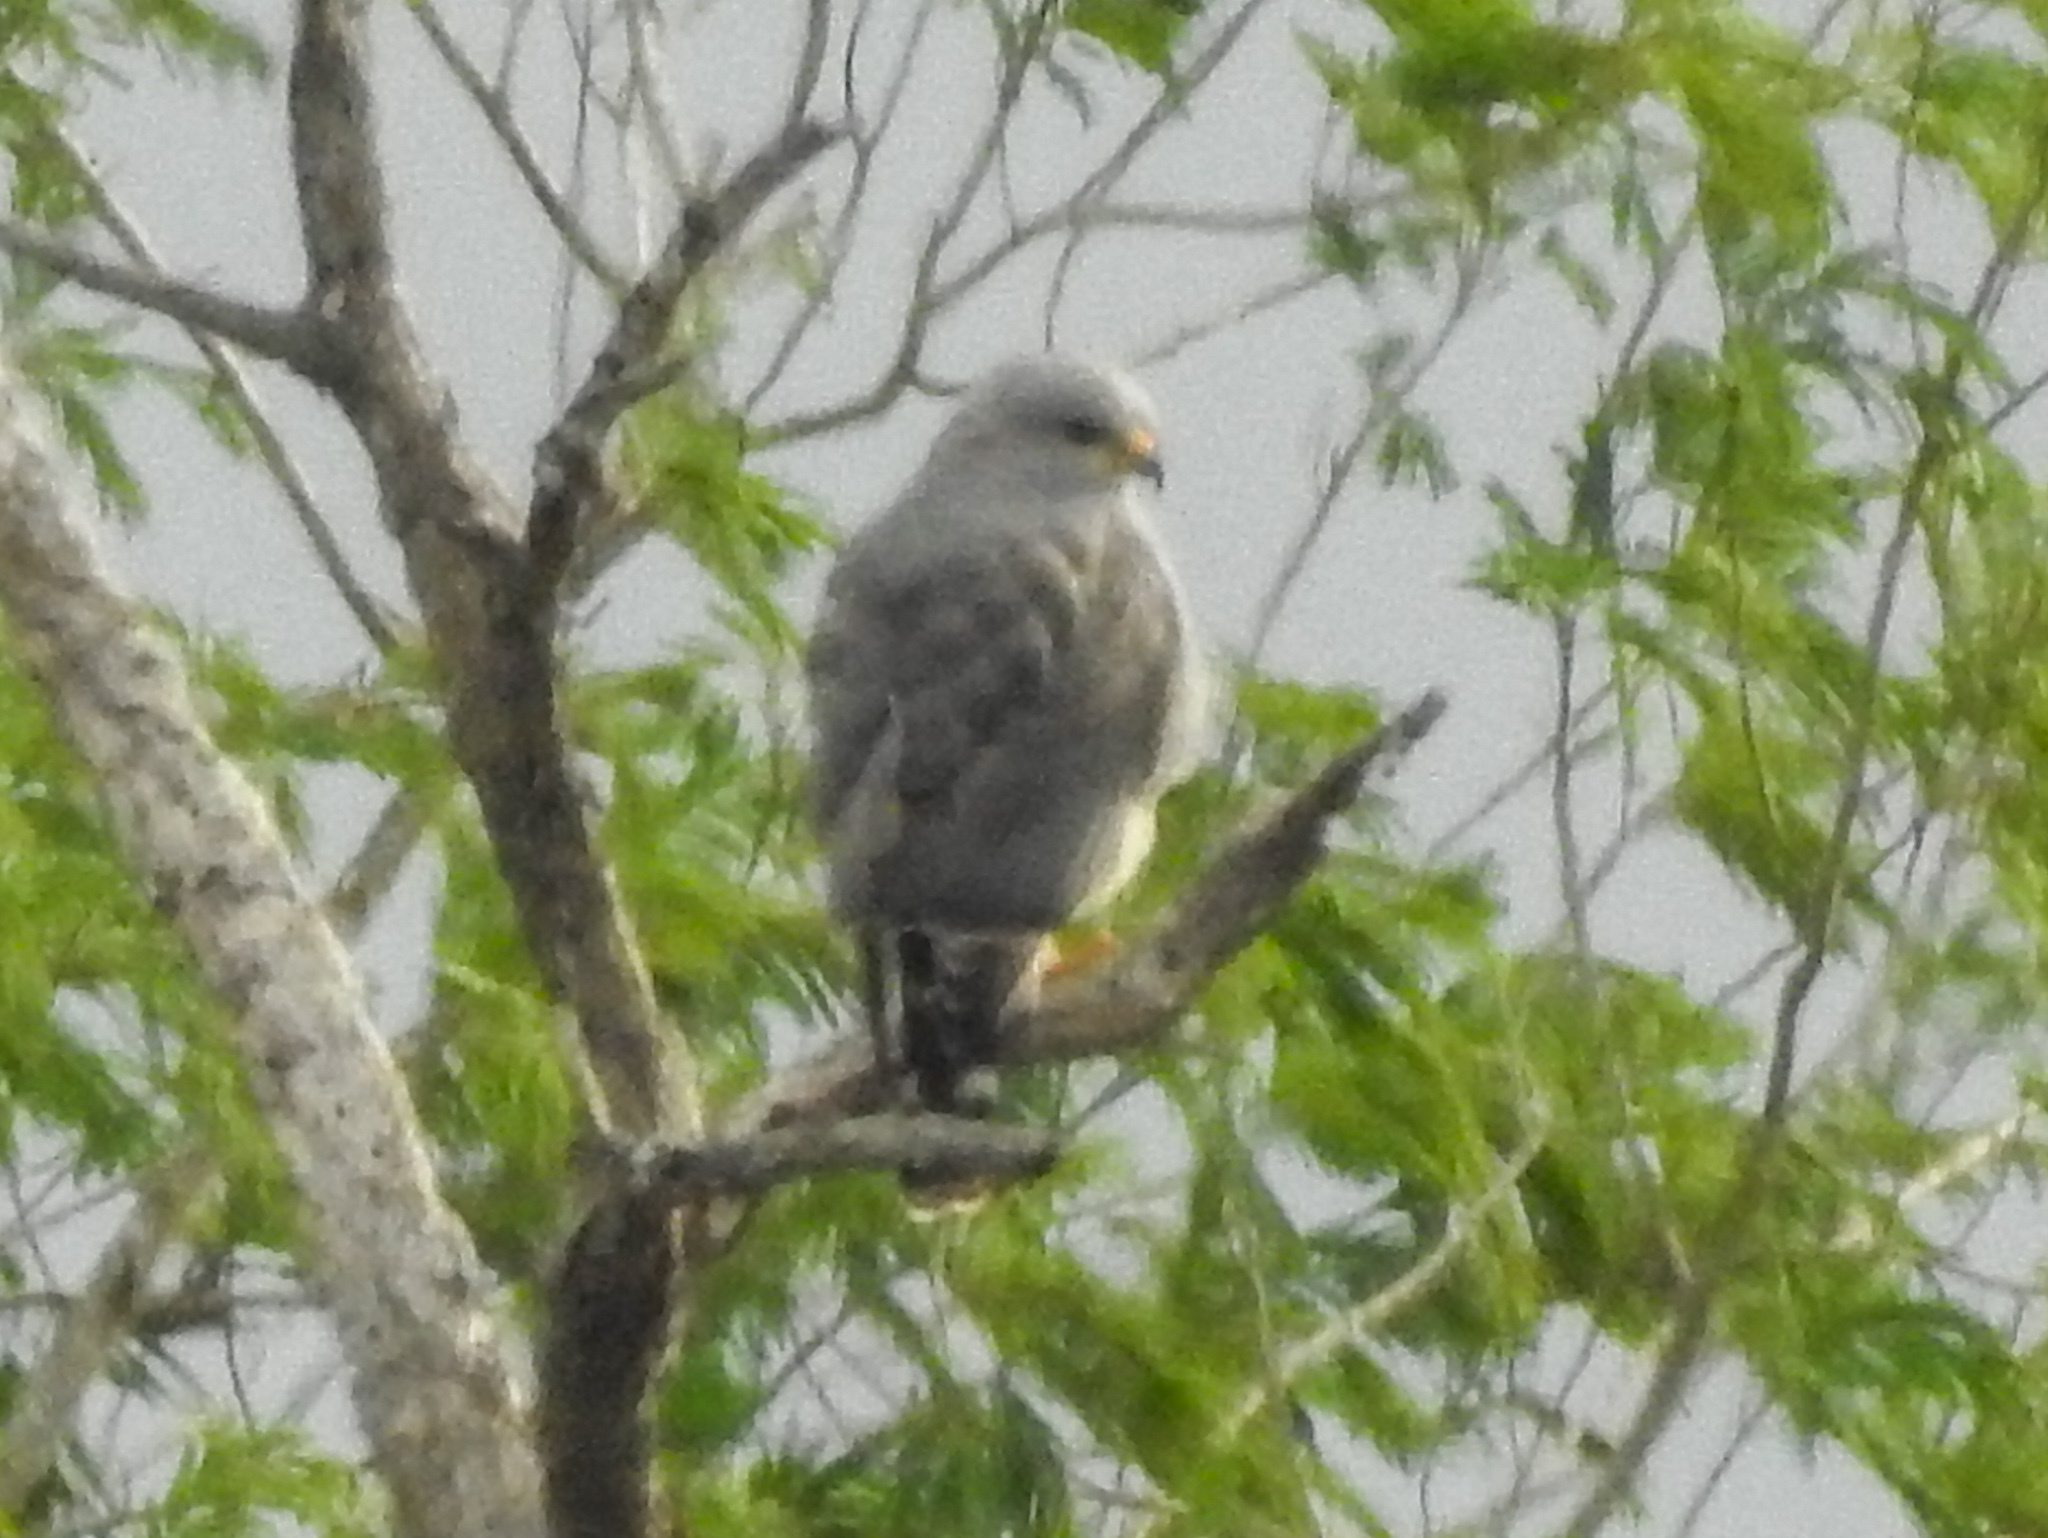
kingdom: Animalia
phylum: Chordata
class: Aves
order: Accipitriformes
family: Accipitridae
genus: Buteo
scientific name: Buteo nitidus
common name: Grey-lined hawk
